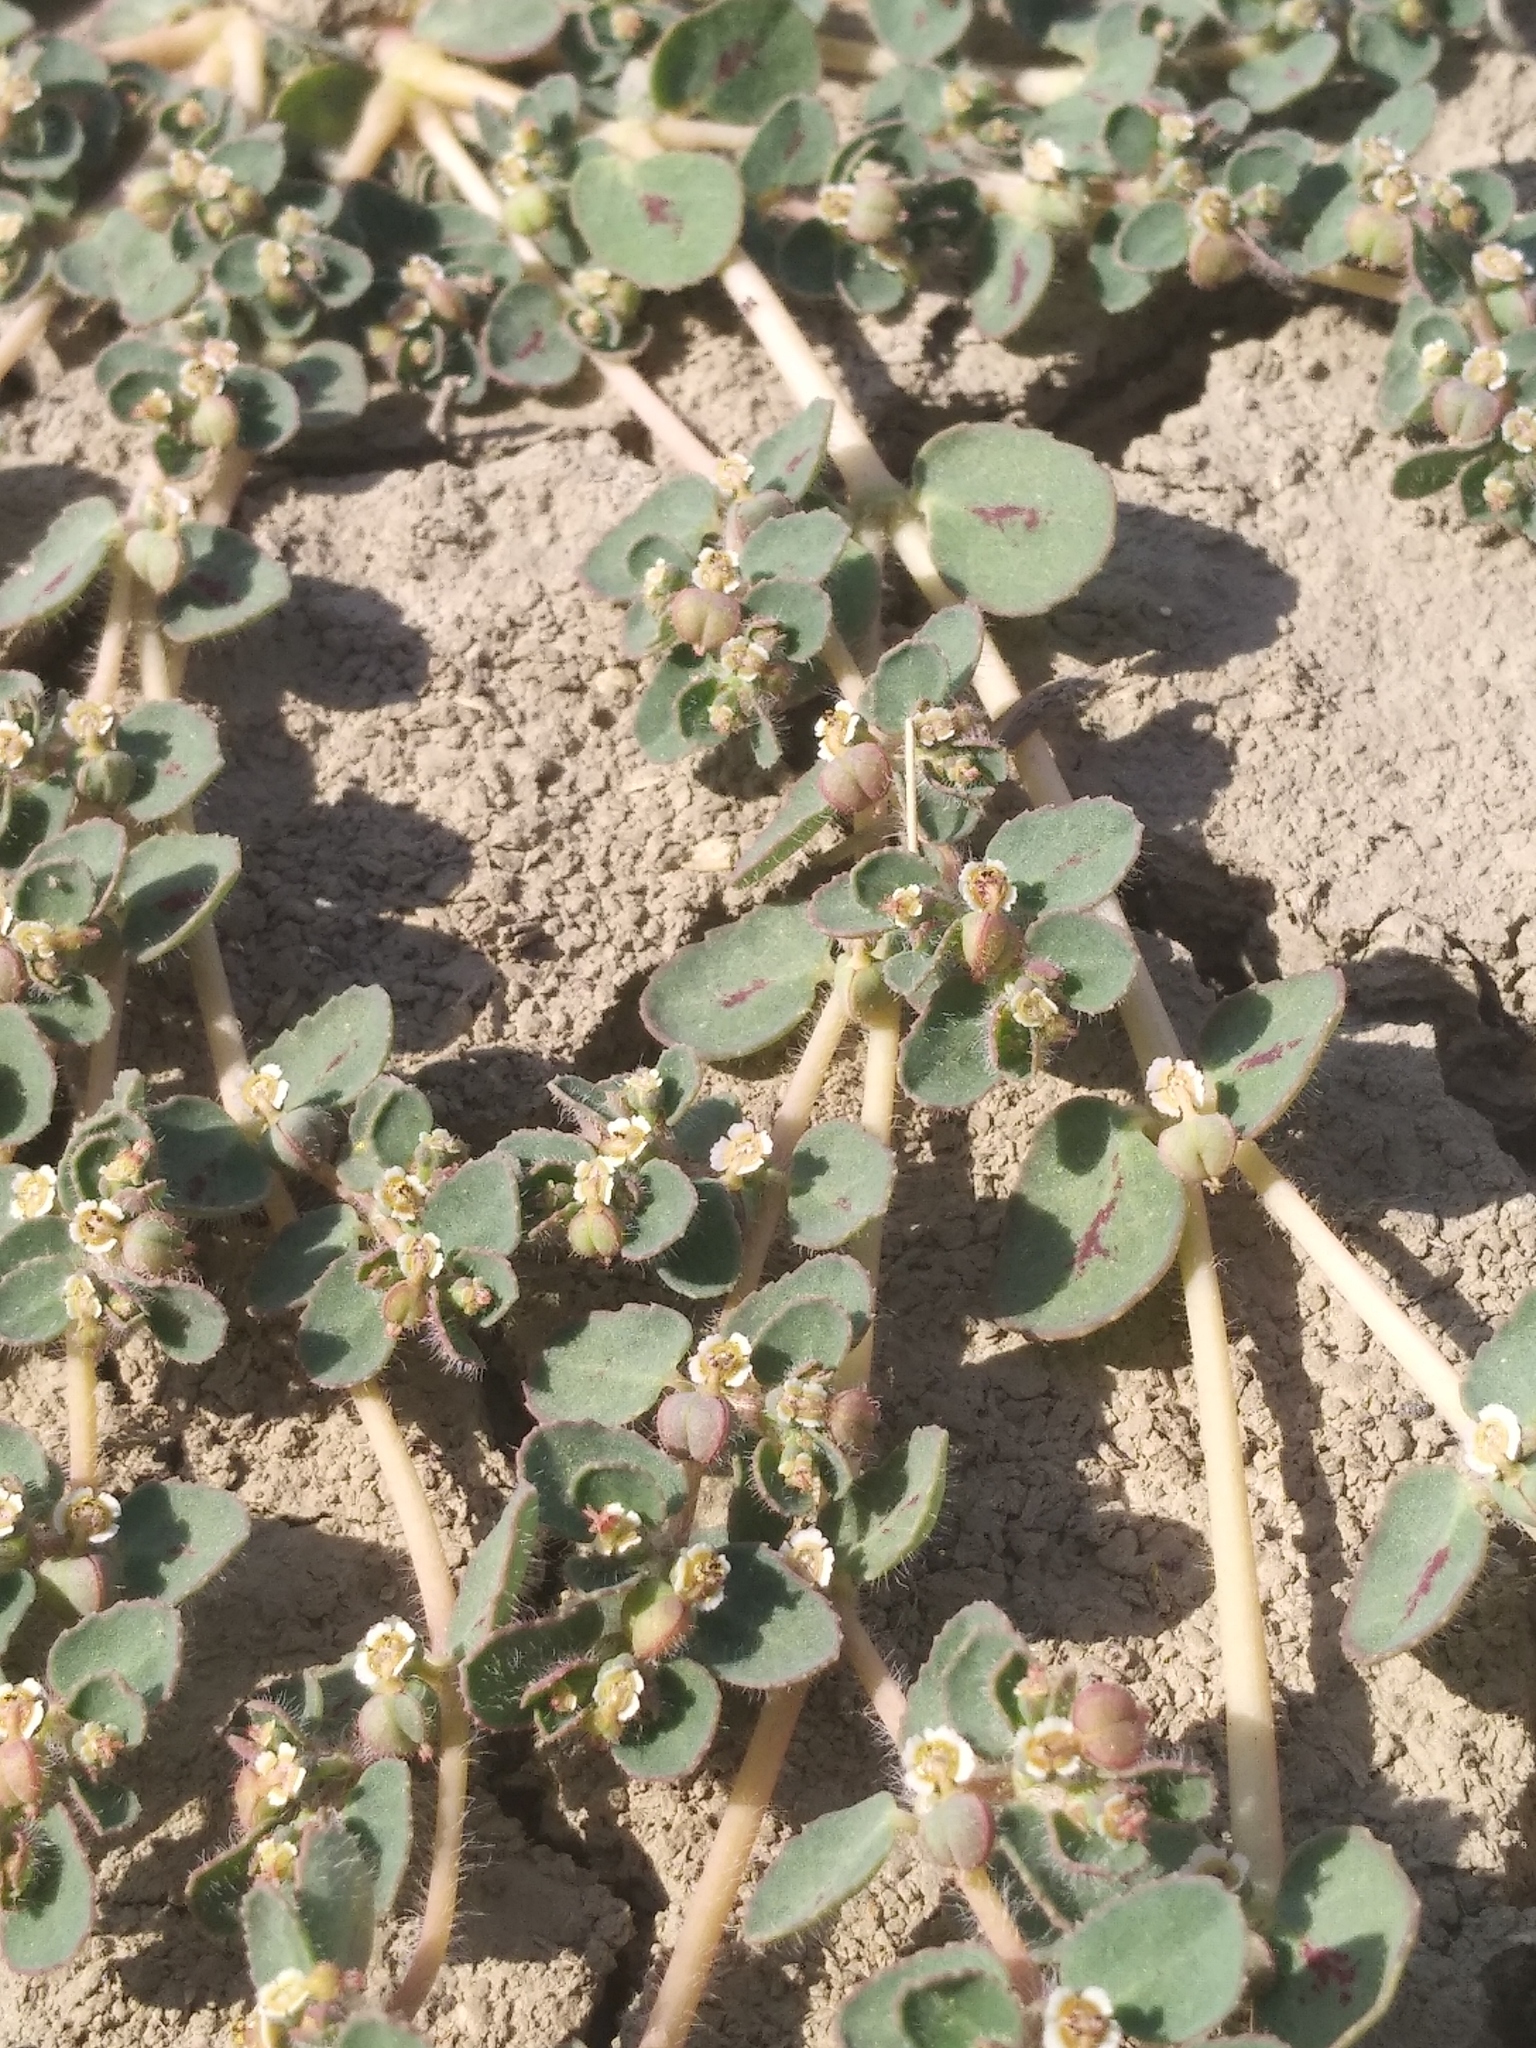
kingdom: Plantae
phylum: Tracheophyta
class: Magnoliopsida
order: Malpighiales
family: Euphorbiaceae
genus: Euphorbia
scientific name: Euphorbia chamaesyce
